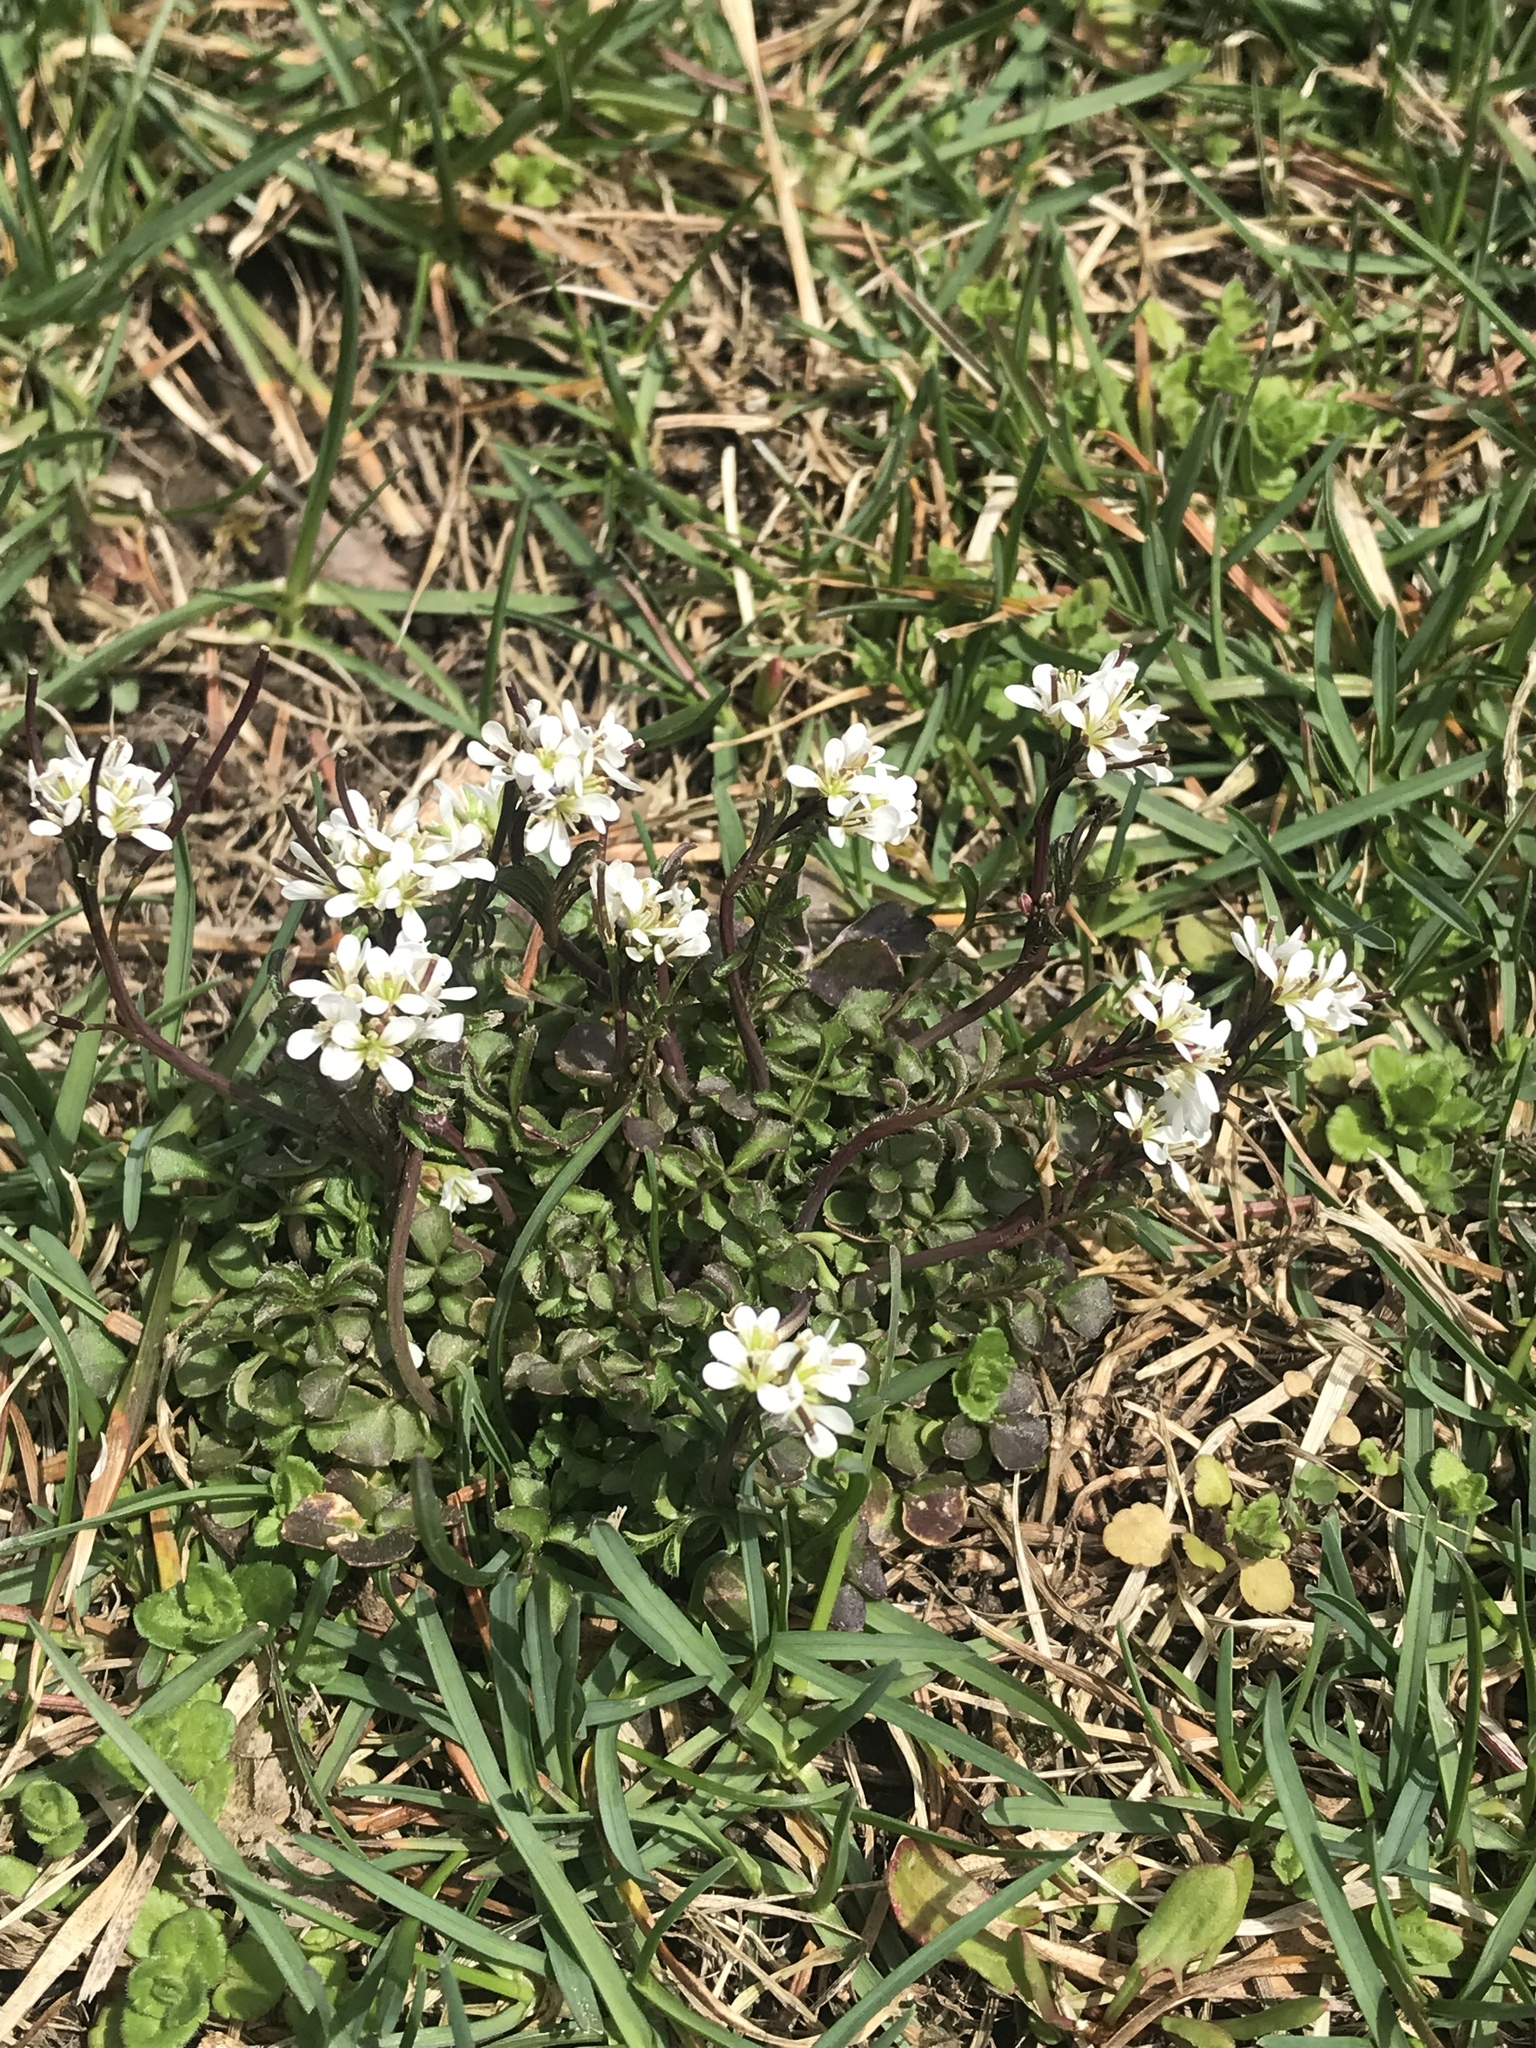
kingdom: Plantae
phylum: Tracheophyta
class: Magnoliopsida
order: Brassicales
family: Brassicaceae
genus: Cardamine
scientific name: Cardamine hirsuta
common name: Hairy bittercress
